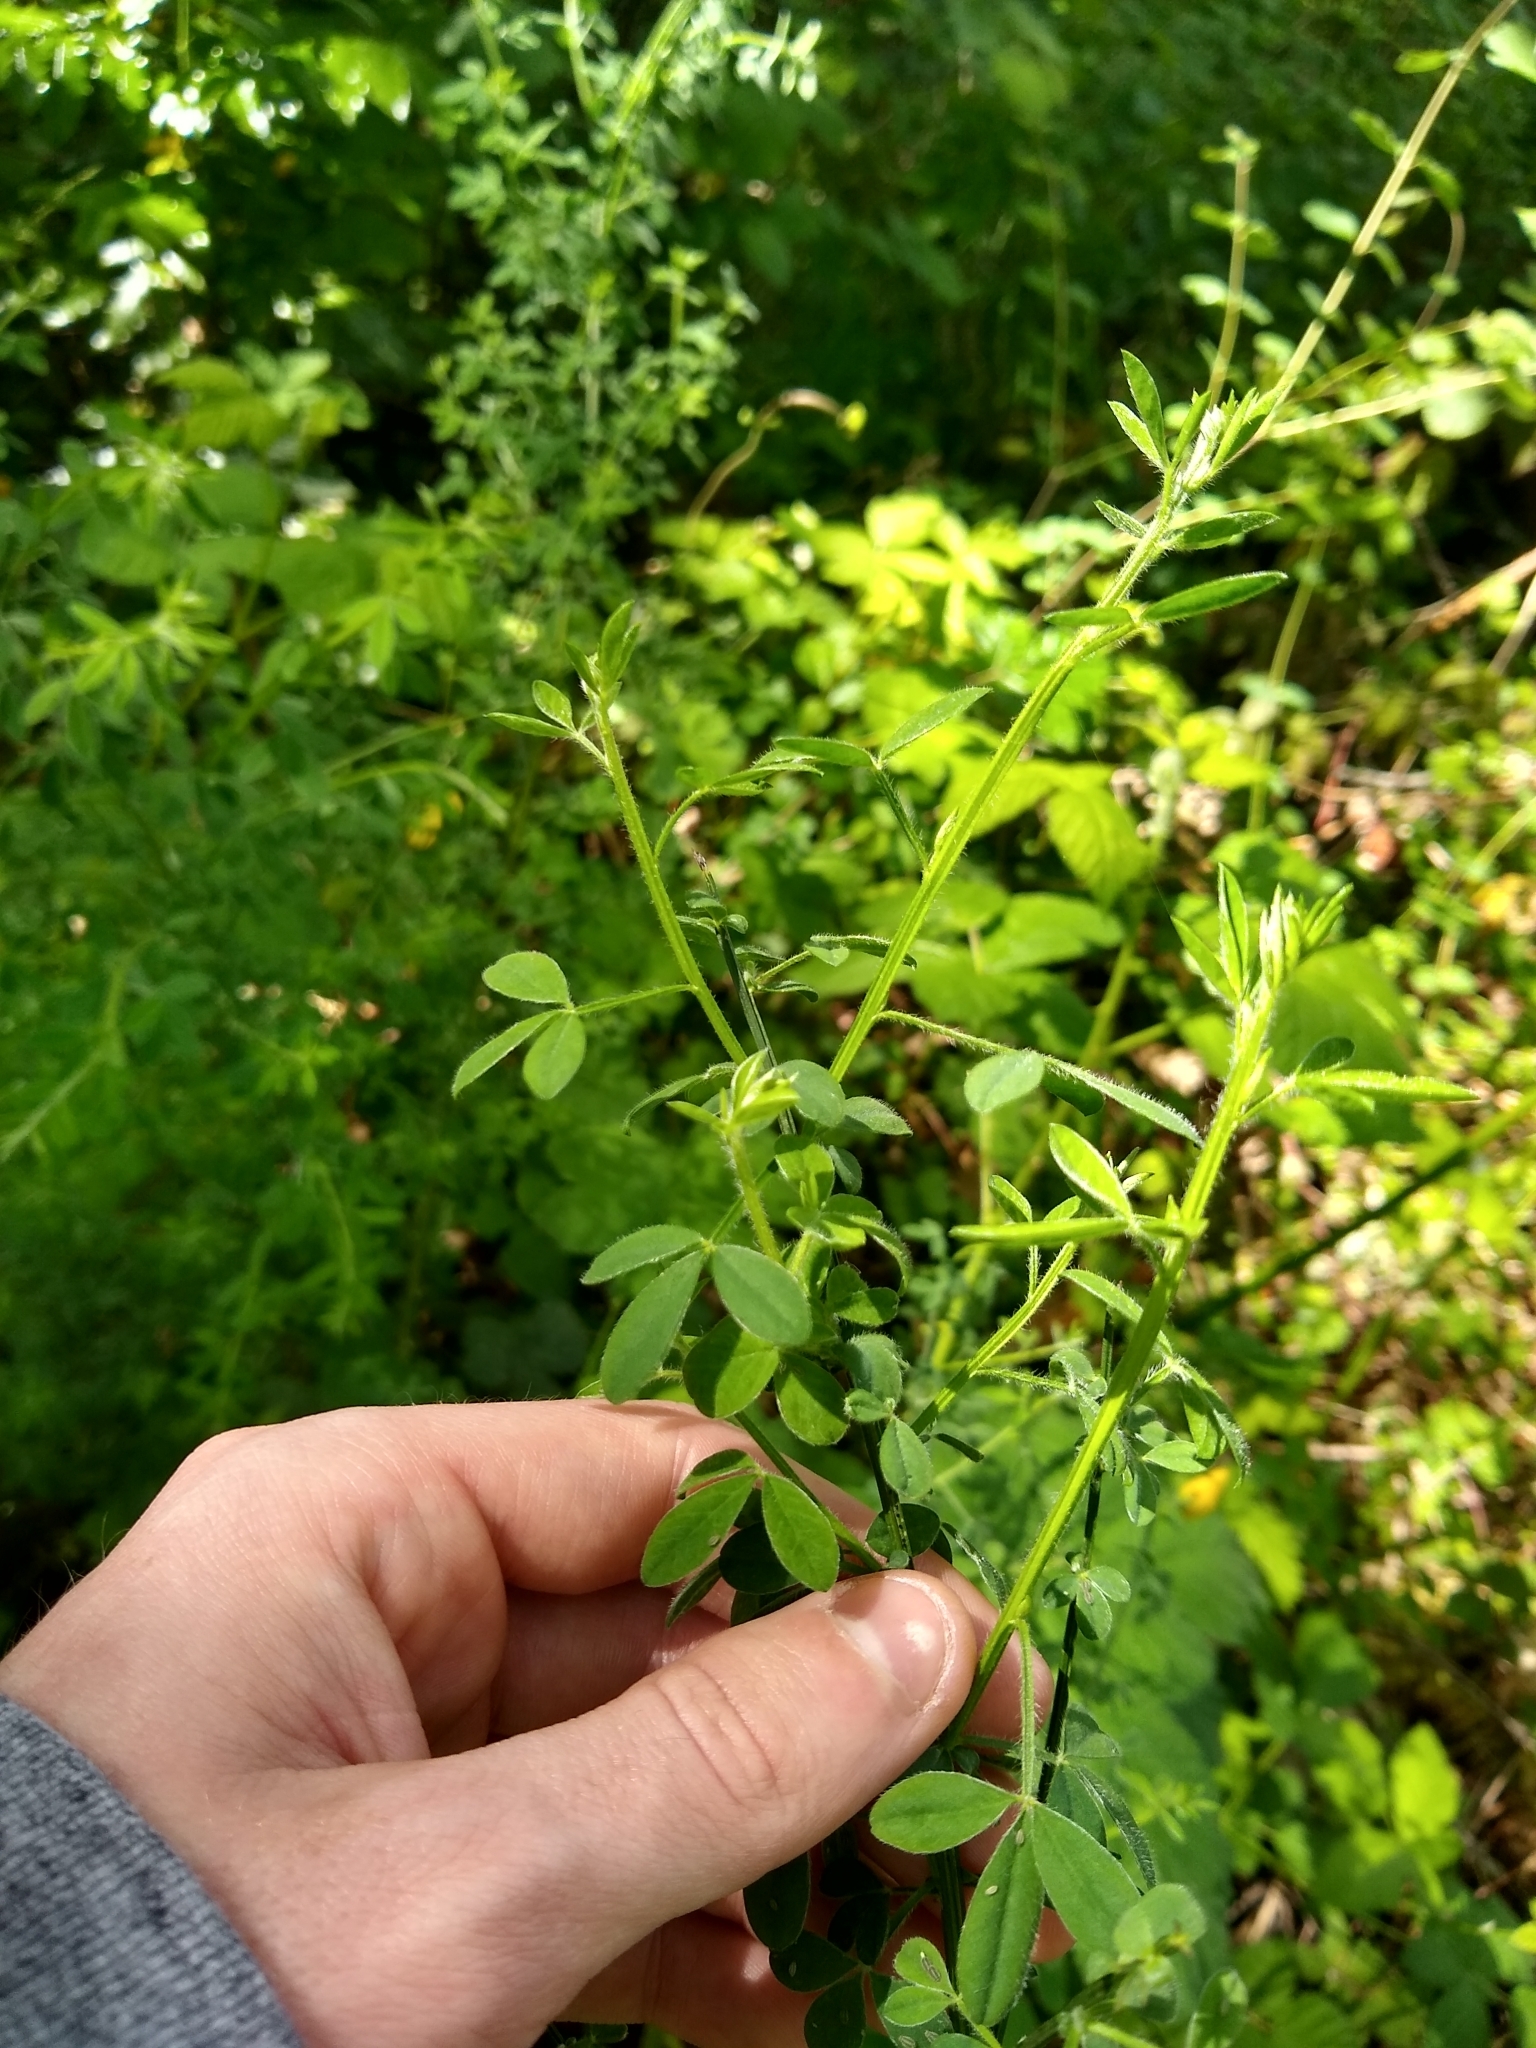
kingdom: Plantae
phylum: Tracheophyta
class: Magnoliopsida
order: Fabales
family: Fabaceae
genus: Cytisus
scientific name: Cytisus scoparius
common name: Scotch broom
